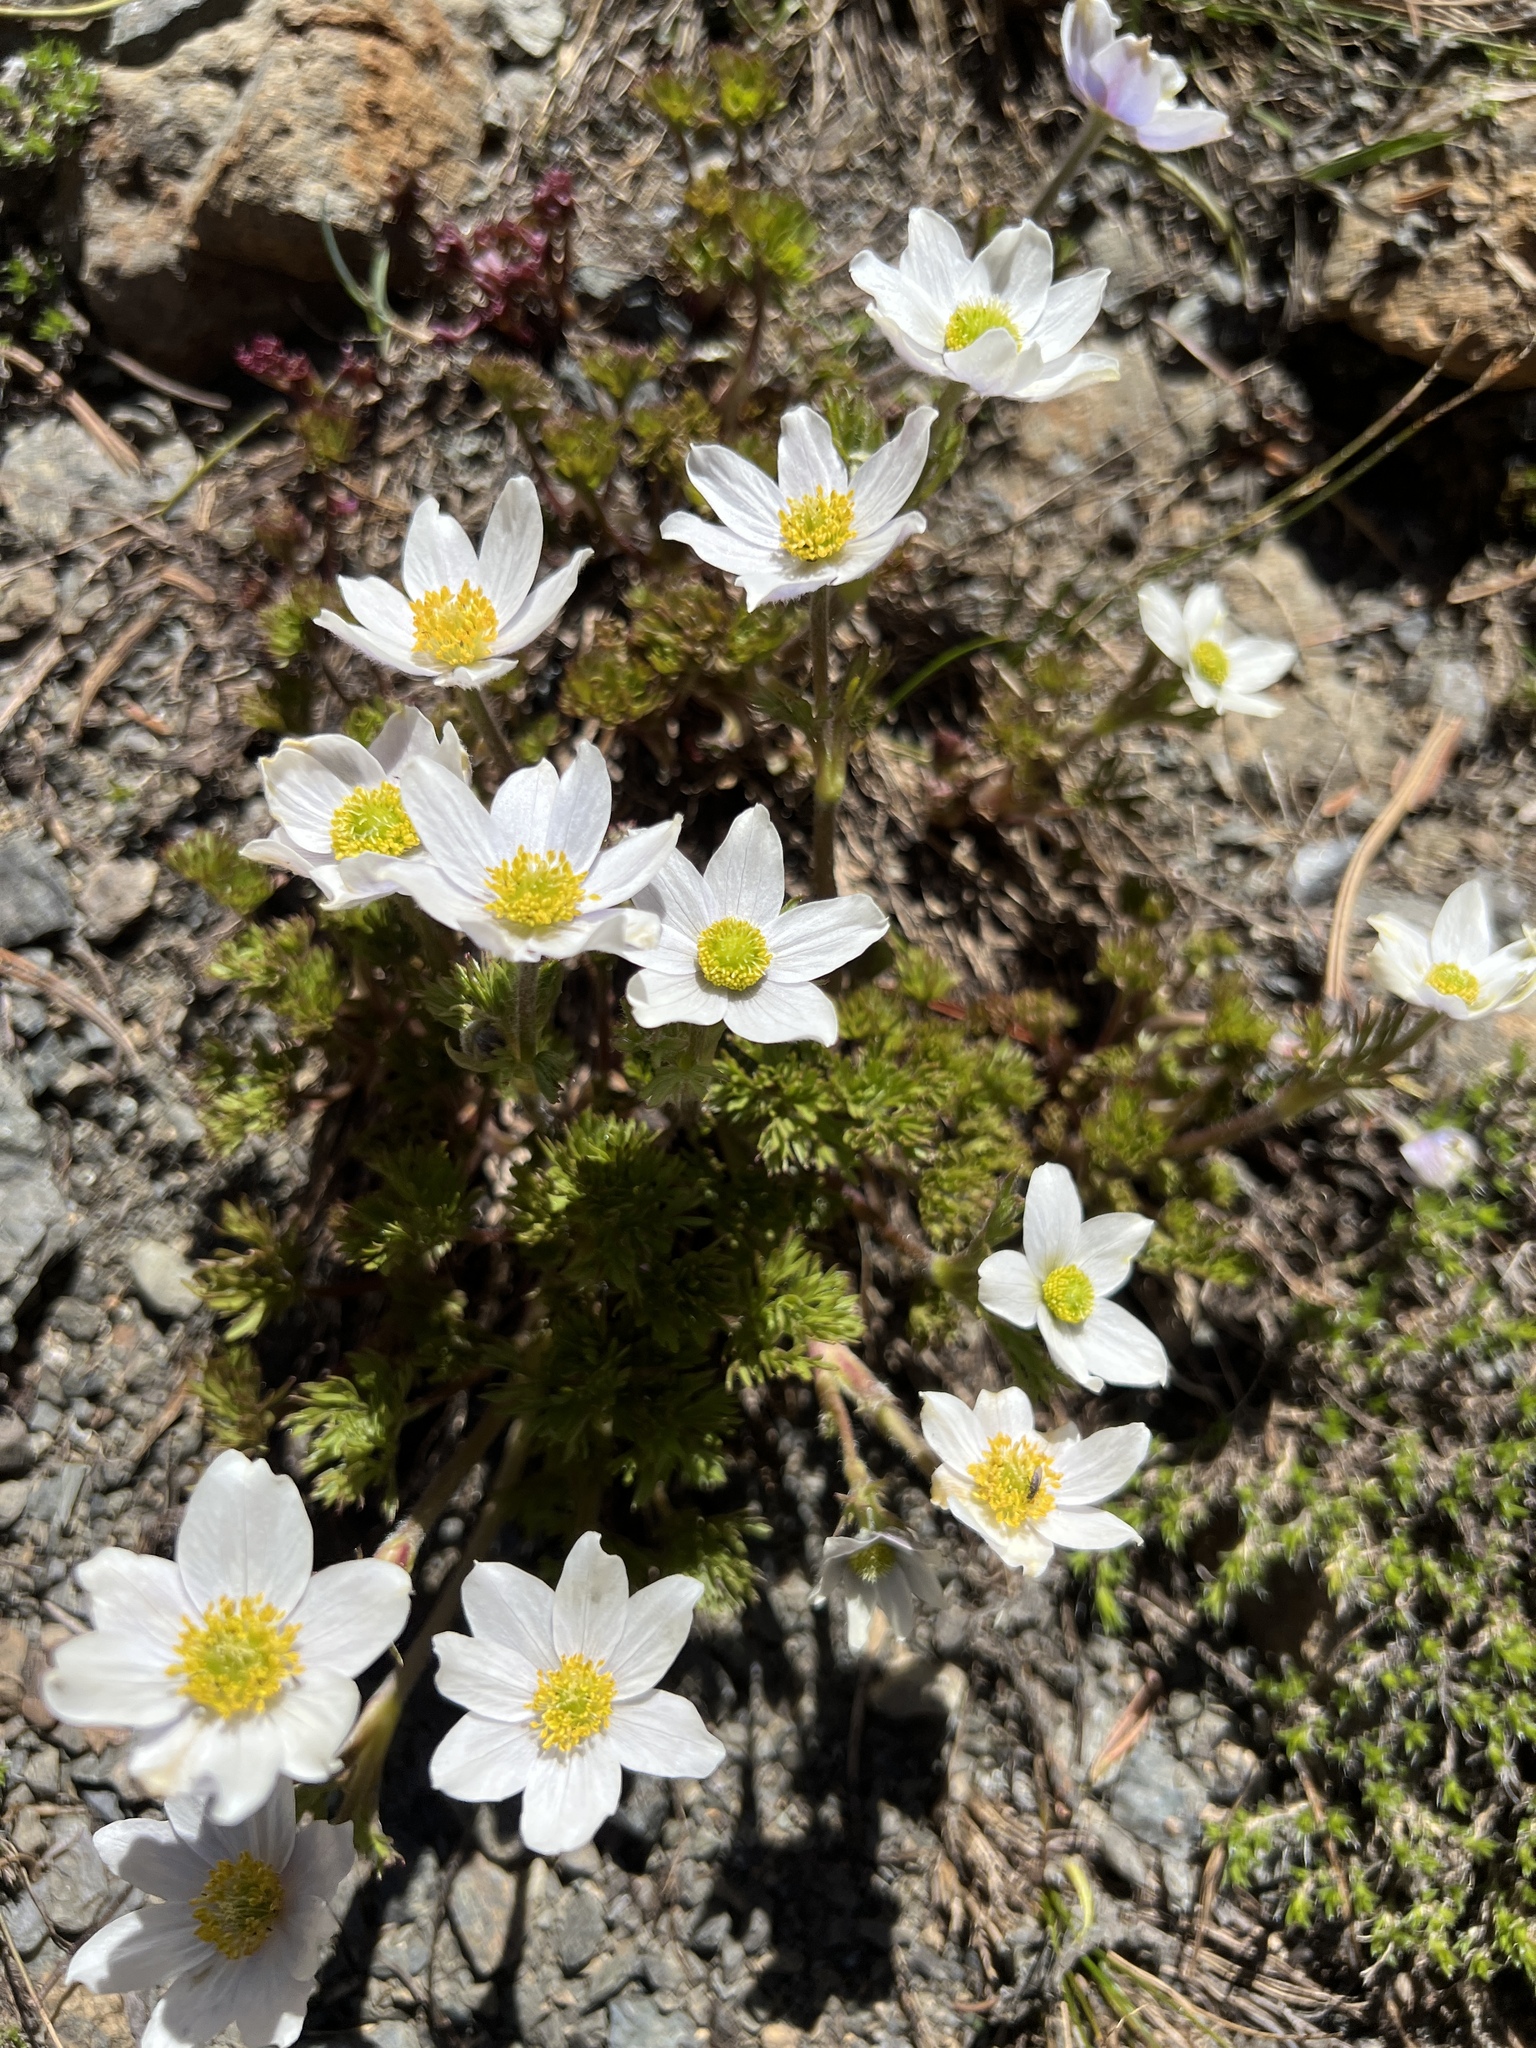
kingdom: Plantae
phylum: Tracheophyta
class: Magnoliopsida
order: Ranunculales
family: Ranunculaceae
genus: Anemone
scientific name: Anemone drummondii
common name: Drummond's anemone
